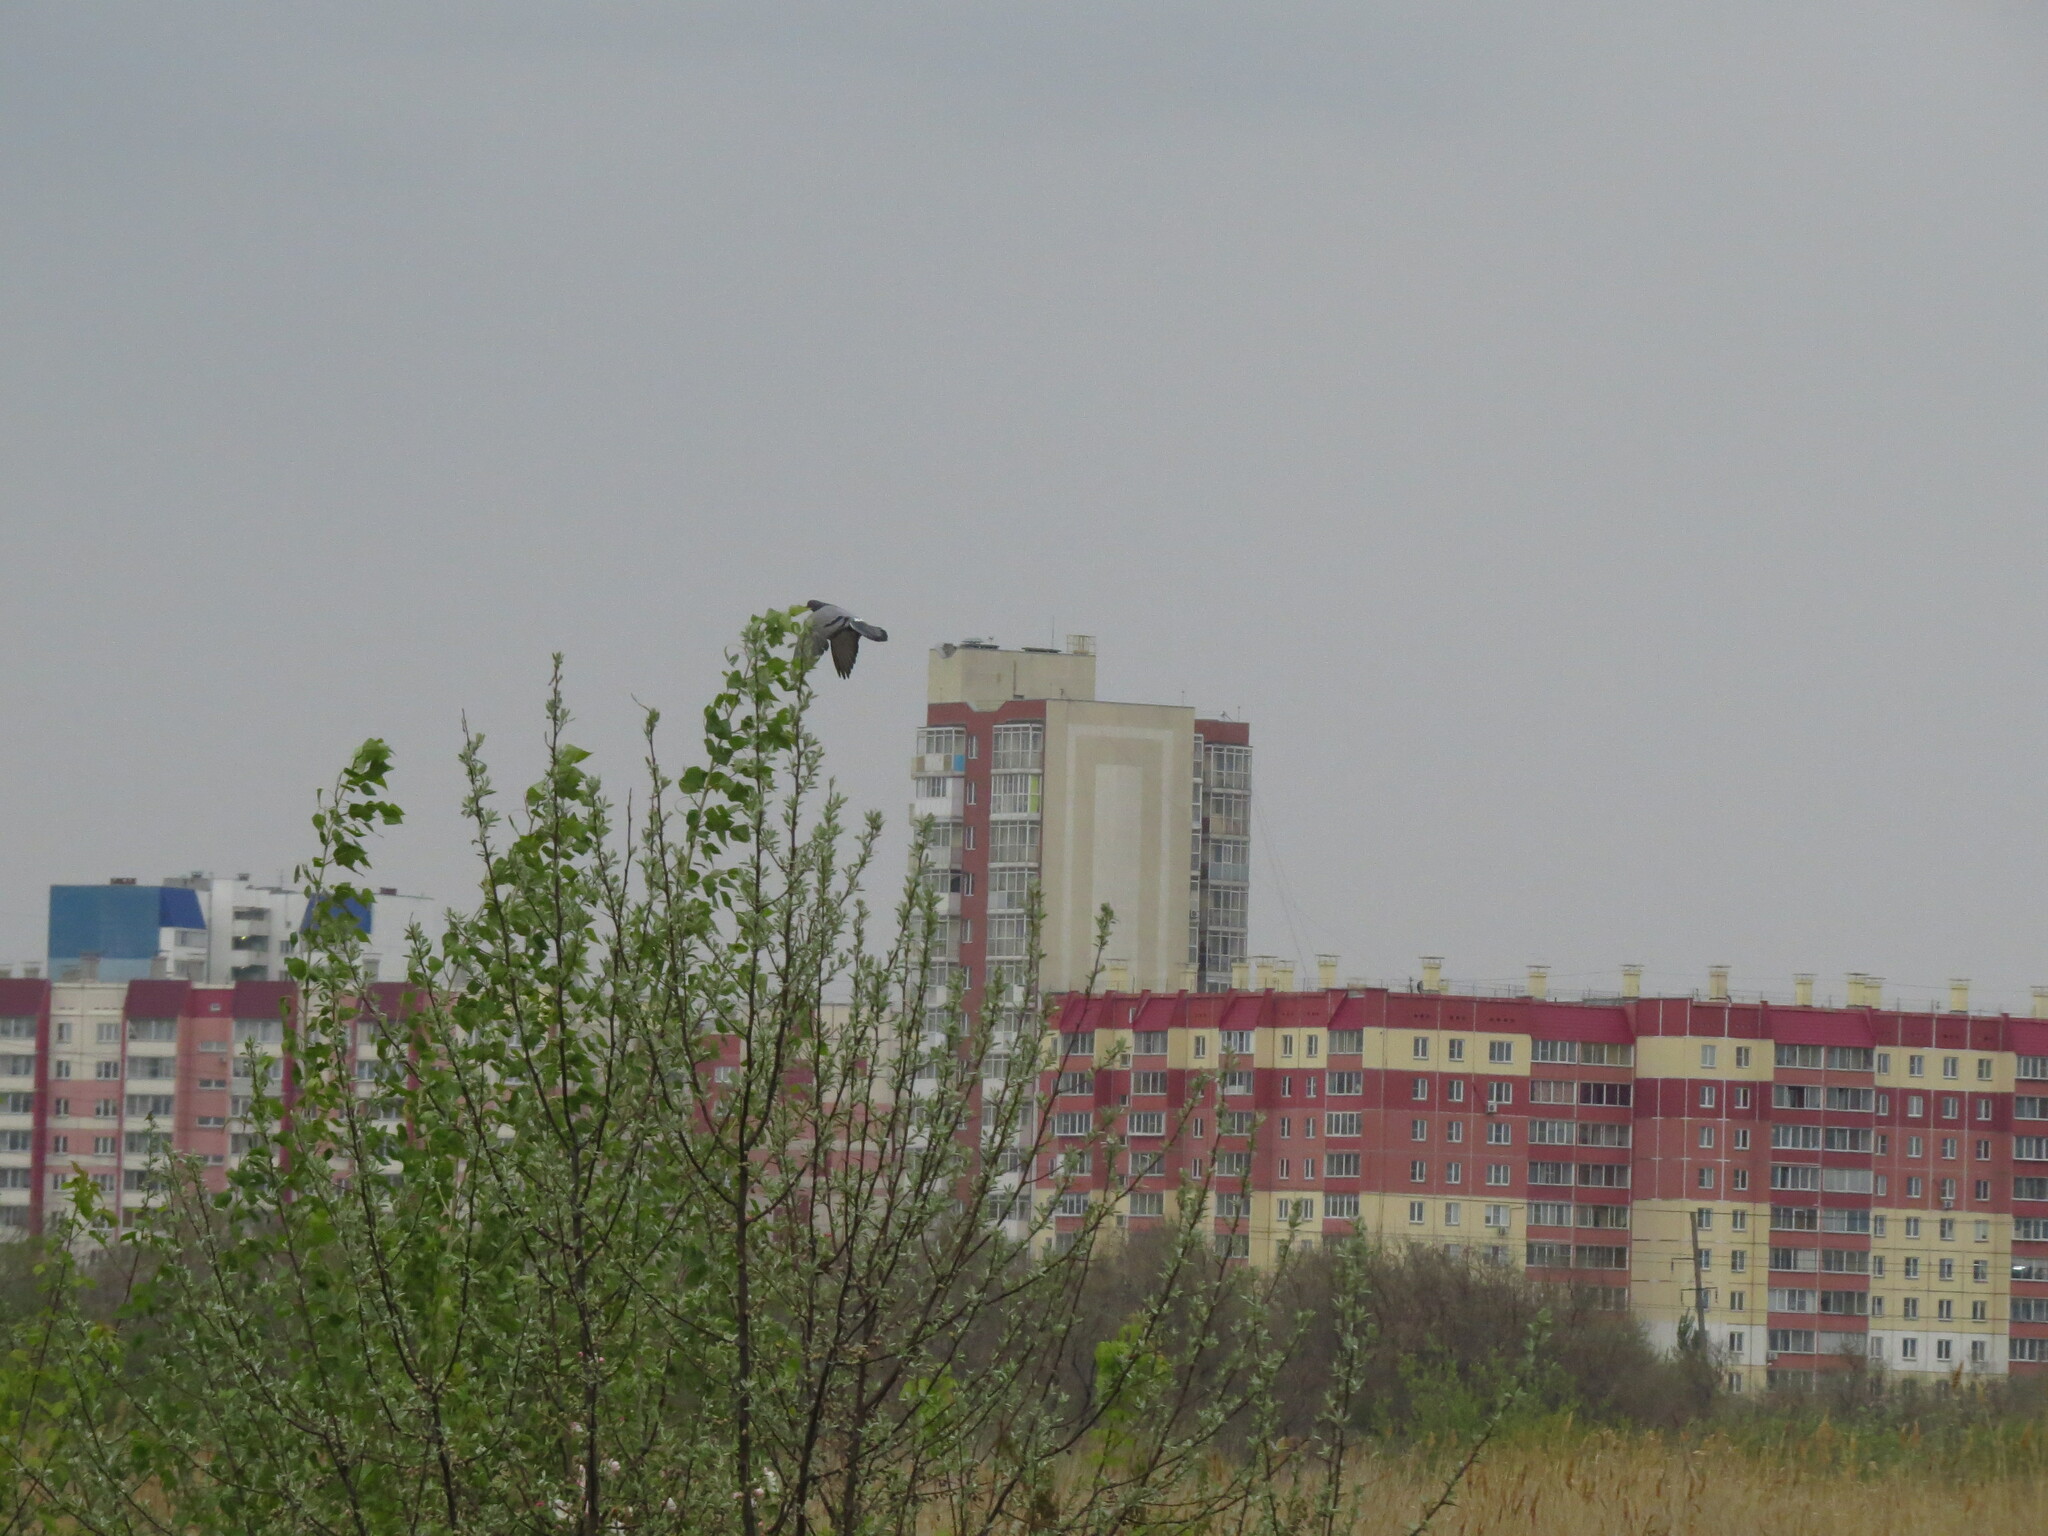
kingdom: Animalia
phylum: Chordata
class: Aves
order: Columbiformes
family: Columbidae
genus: Columba
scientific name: Columba livia
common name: Rock pigeon
